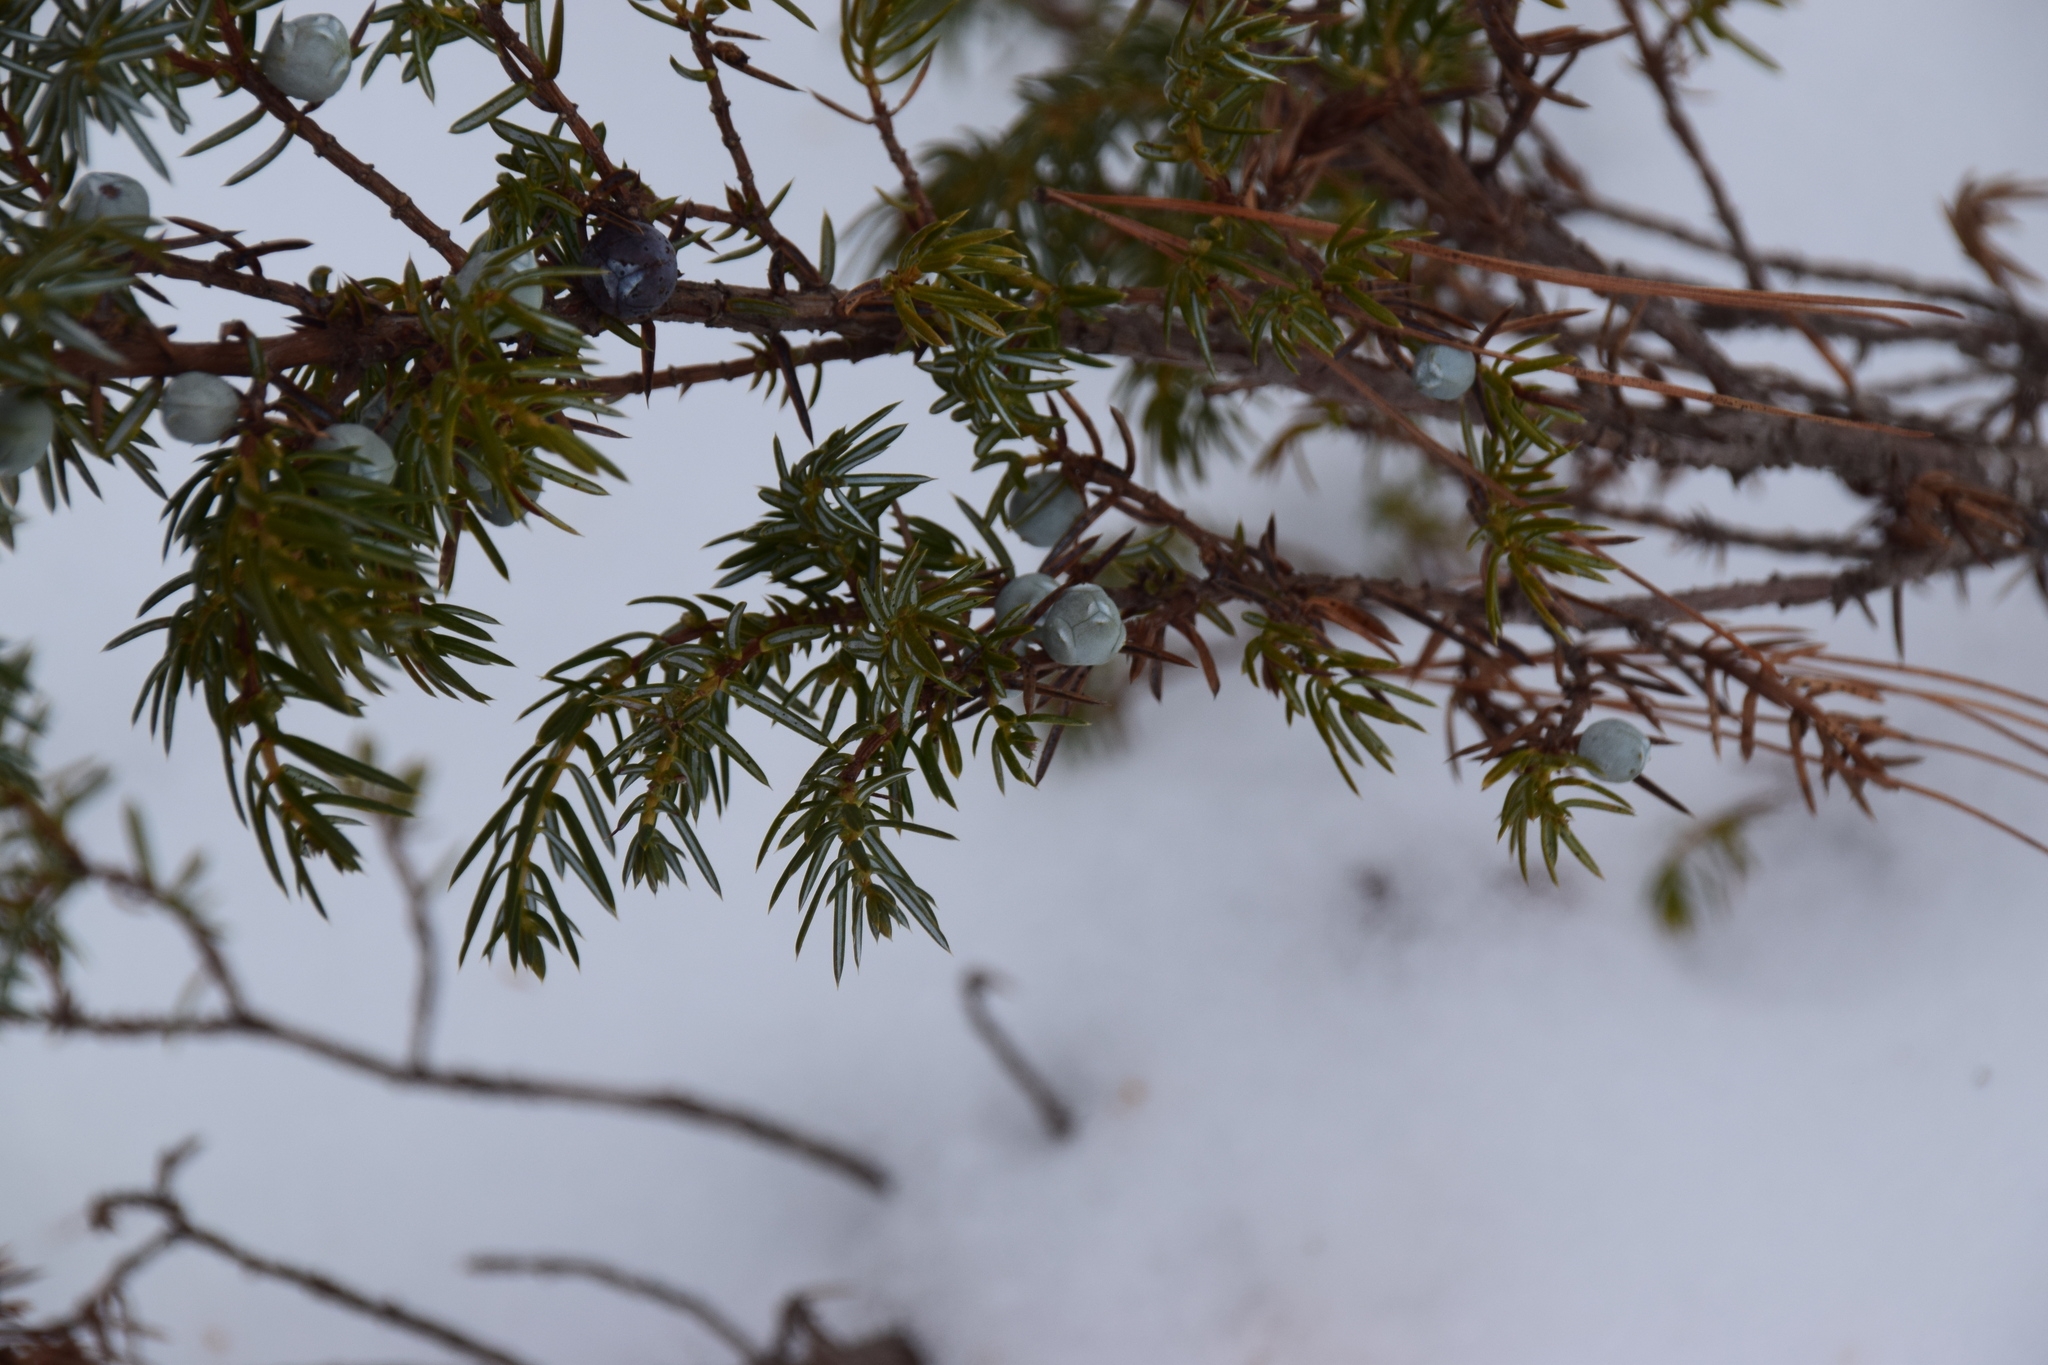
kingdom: Plantae
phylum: Tracheophyta
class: Pinopsida
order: Pinales
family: Cupressaceae
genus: Juniperus
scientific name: Juniperus communis
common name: Common juniper
